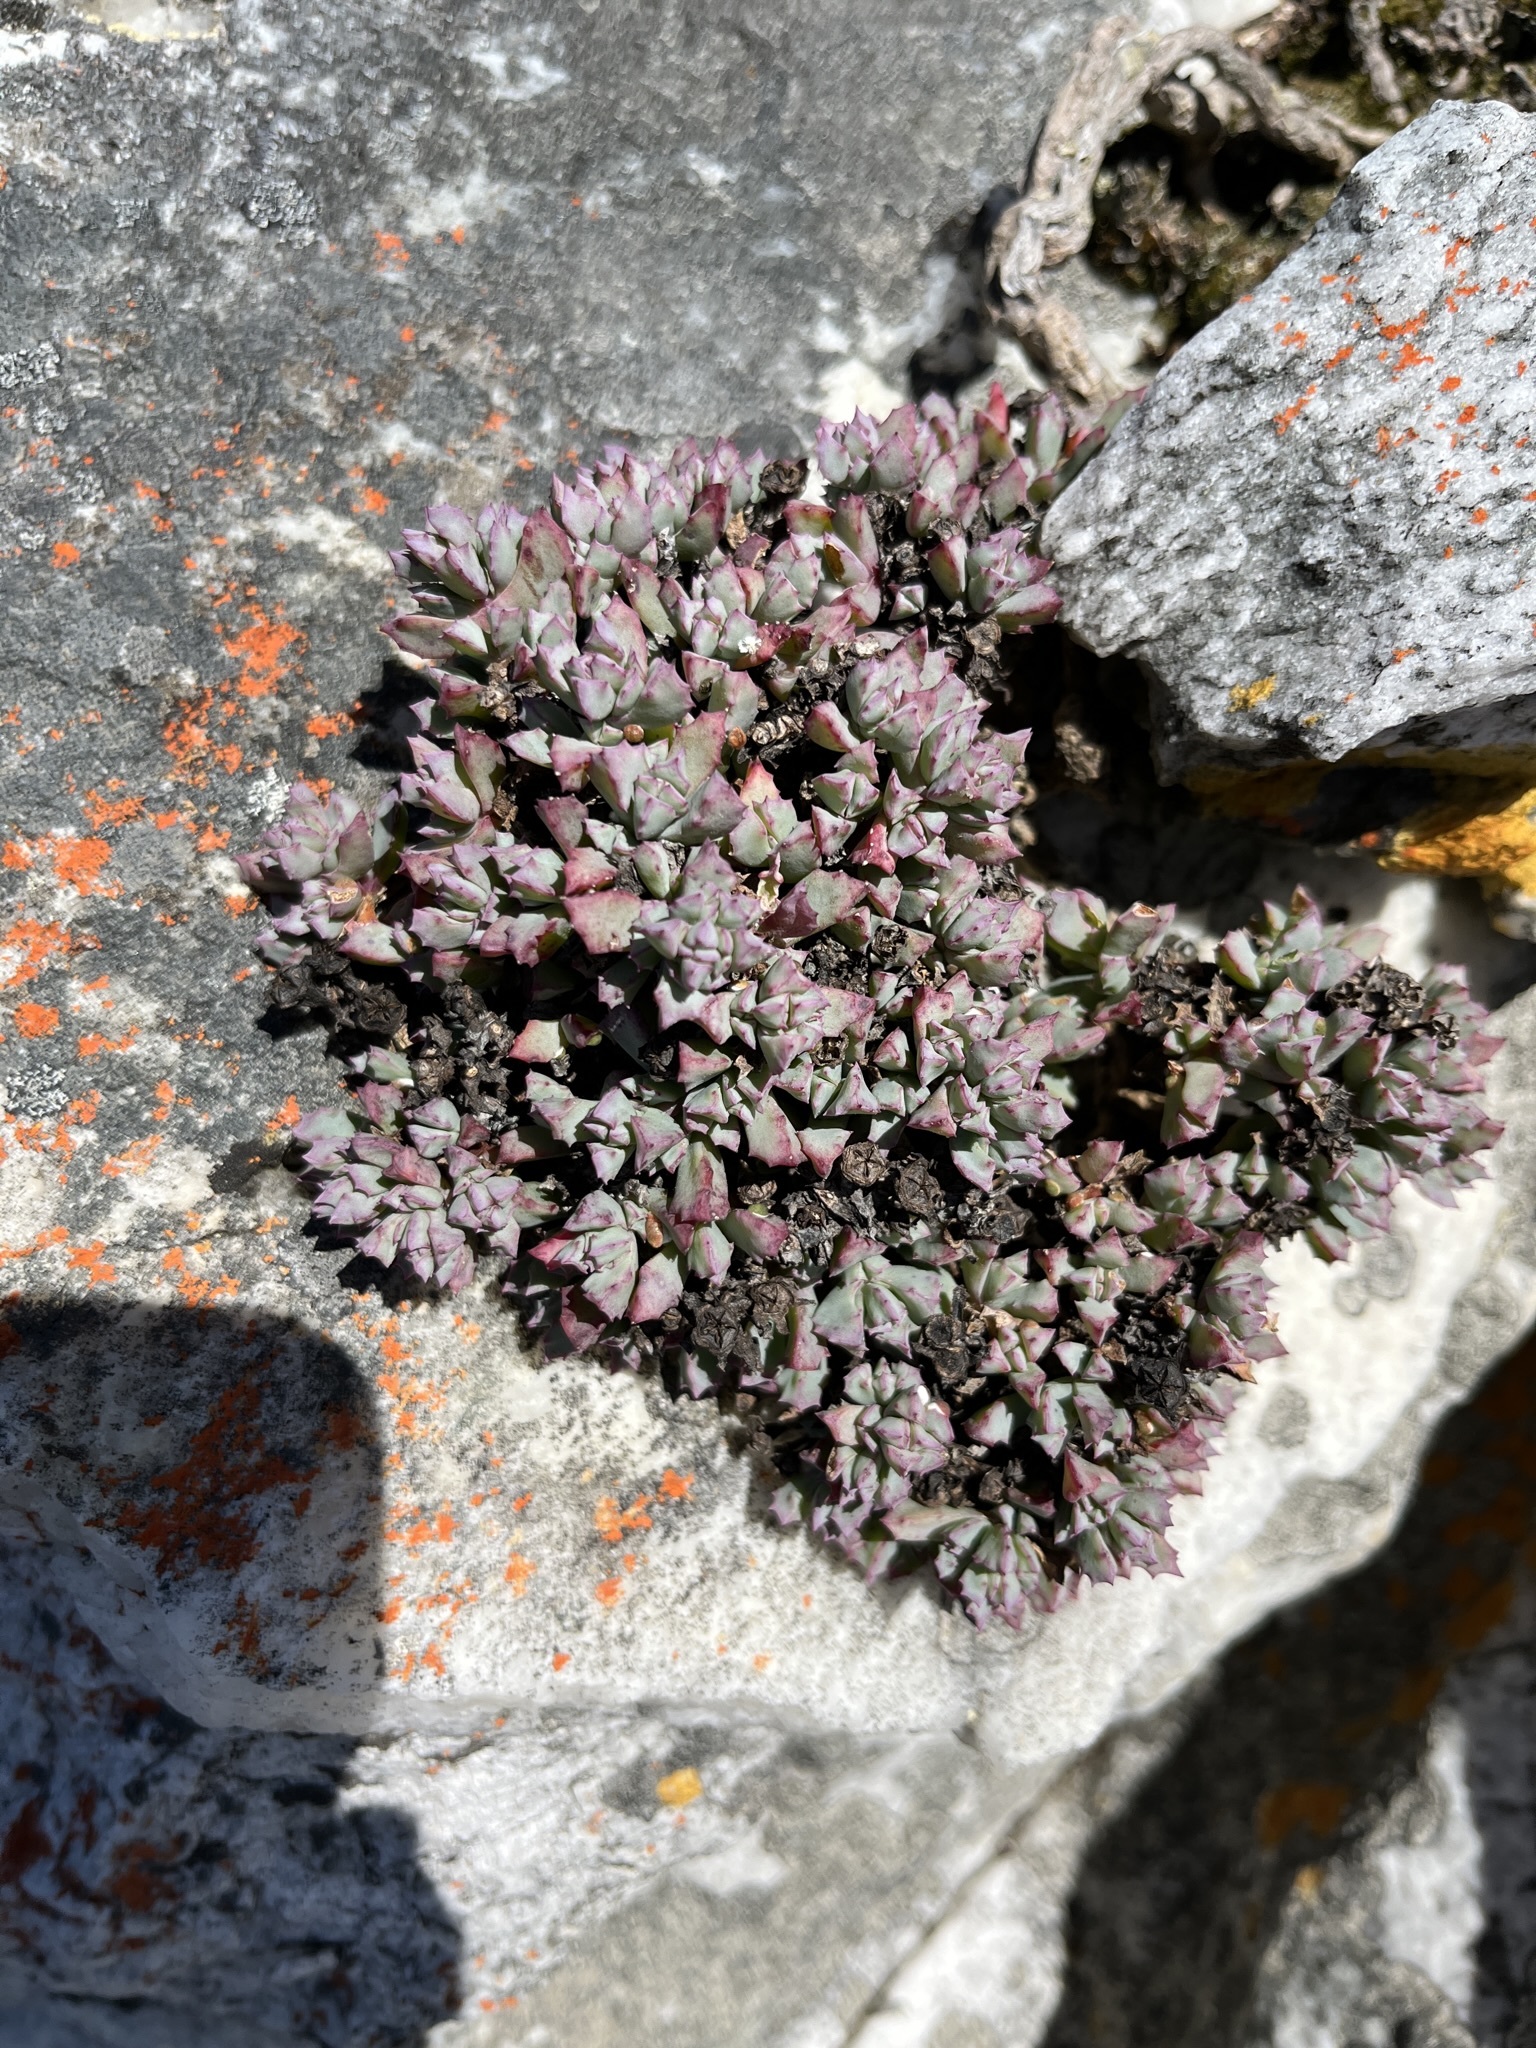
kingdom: Plantae
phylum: Tracheophyta
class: Magnoliopsida
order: Caryophyllales
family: Aizoaceae
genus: Oscularia
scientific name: Oscularia deltoides
